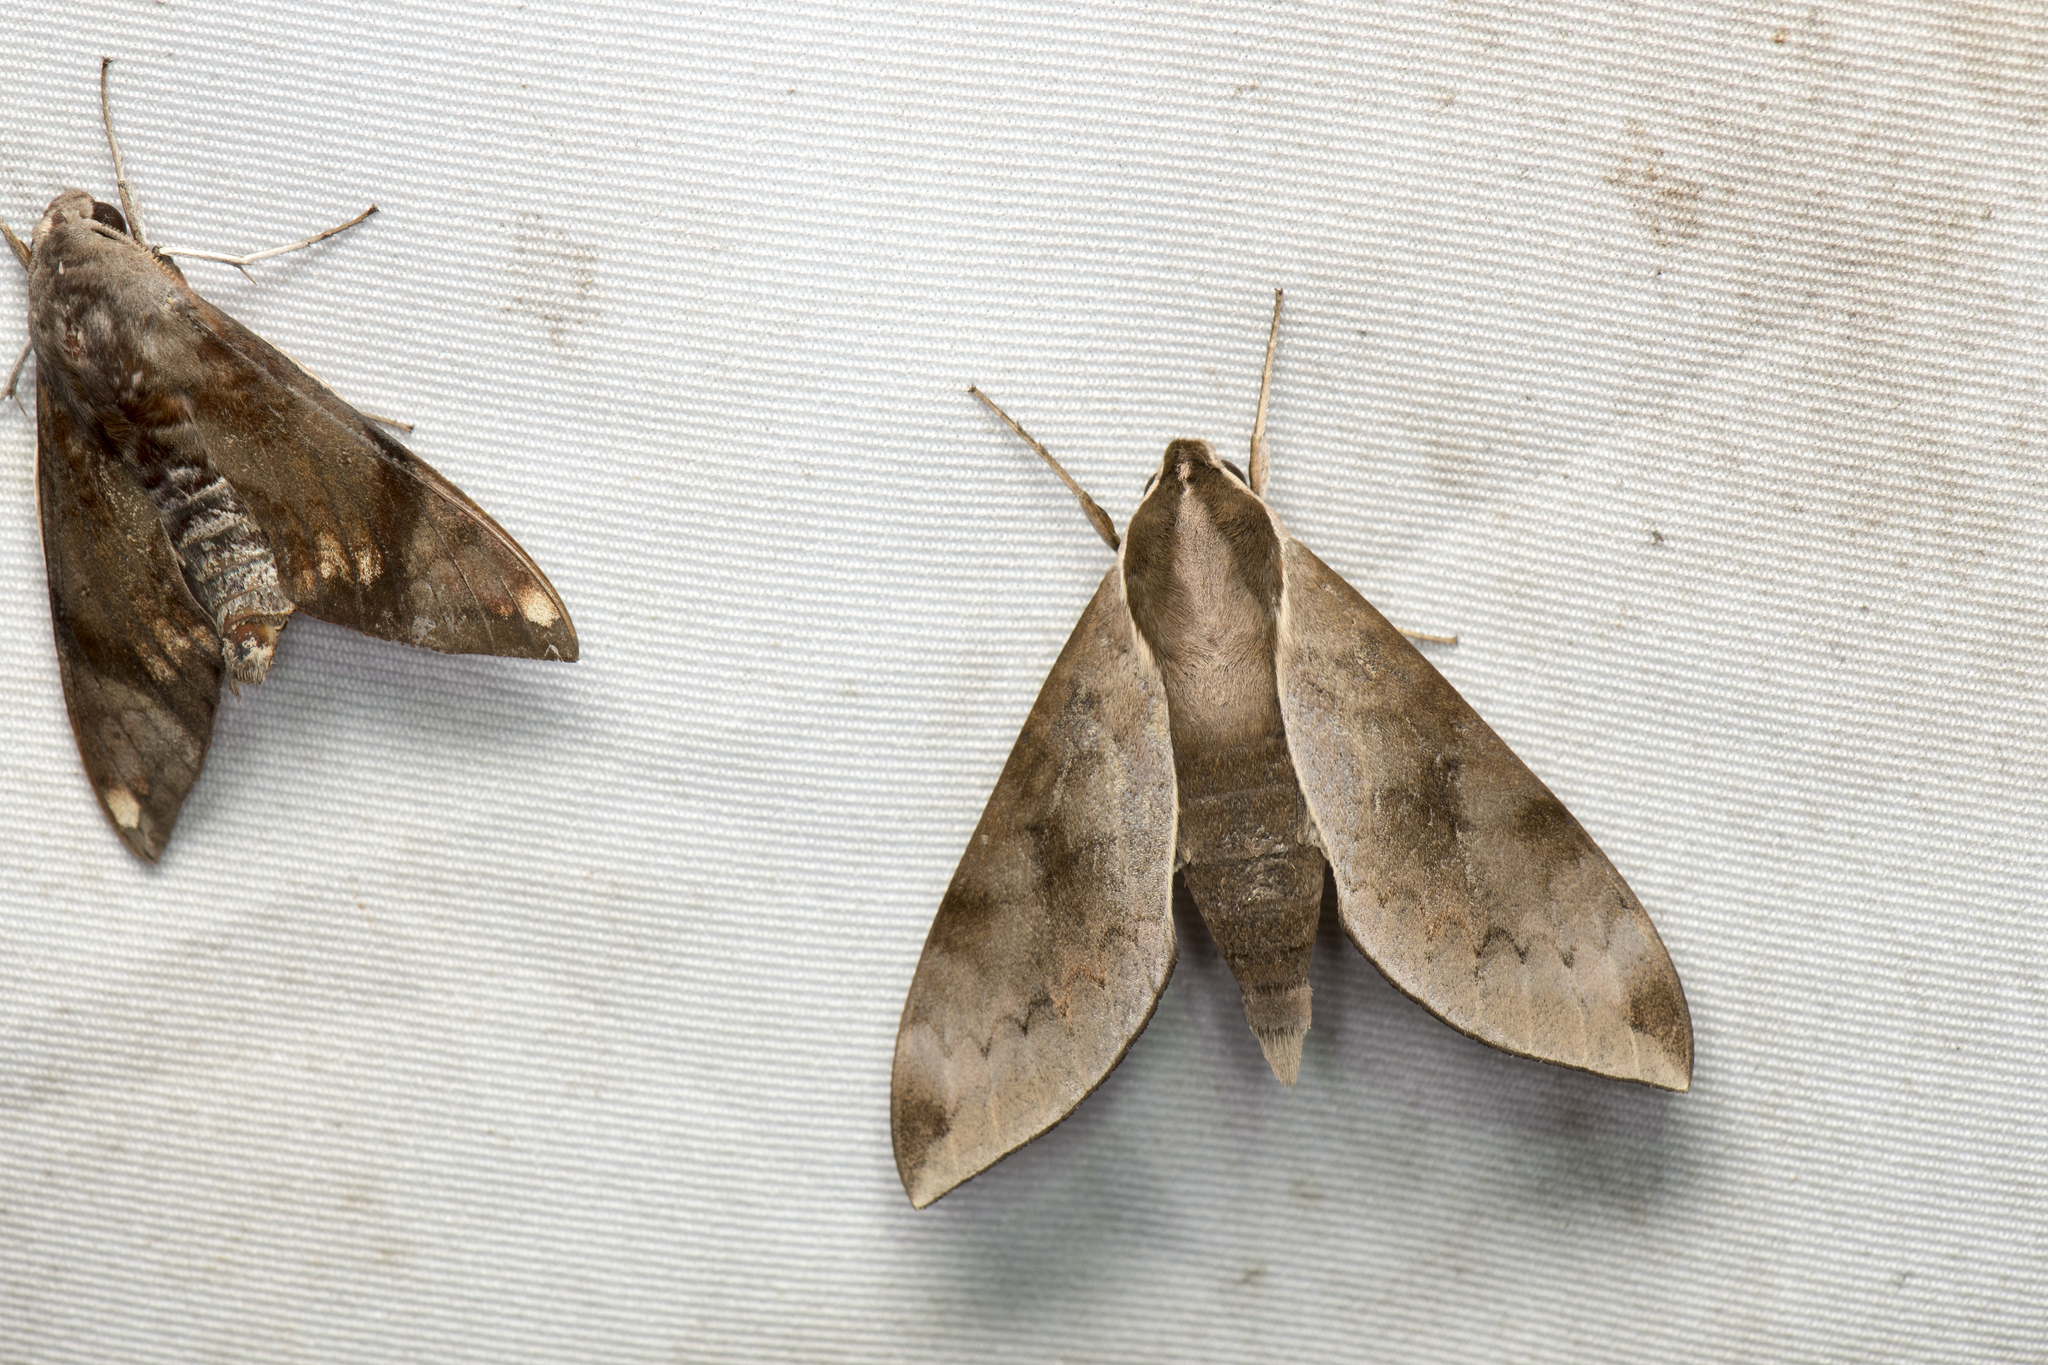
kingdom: Animalia
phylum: Arthropoda
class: Insecta
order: Lepidoptera
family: Sphingidae
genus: Acosmerycoides
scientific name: Acosmerycoides harterti
